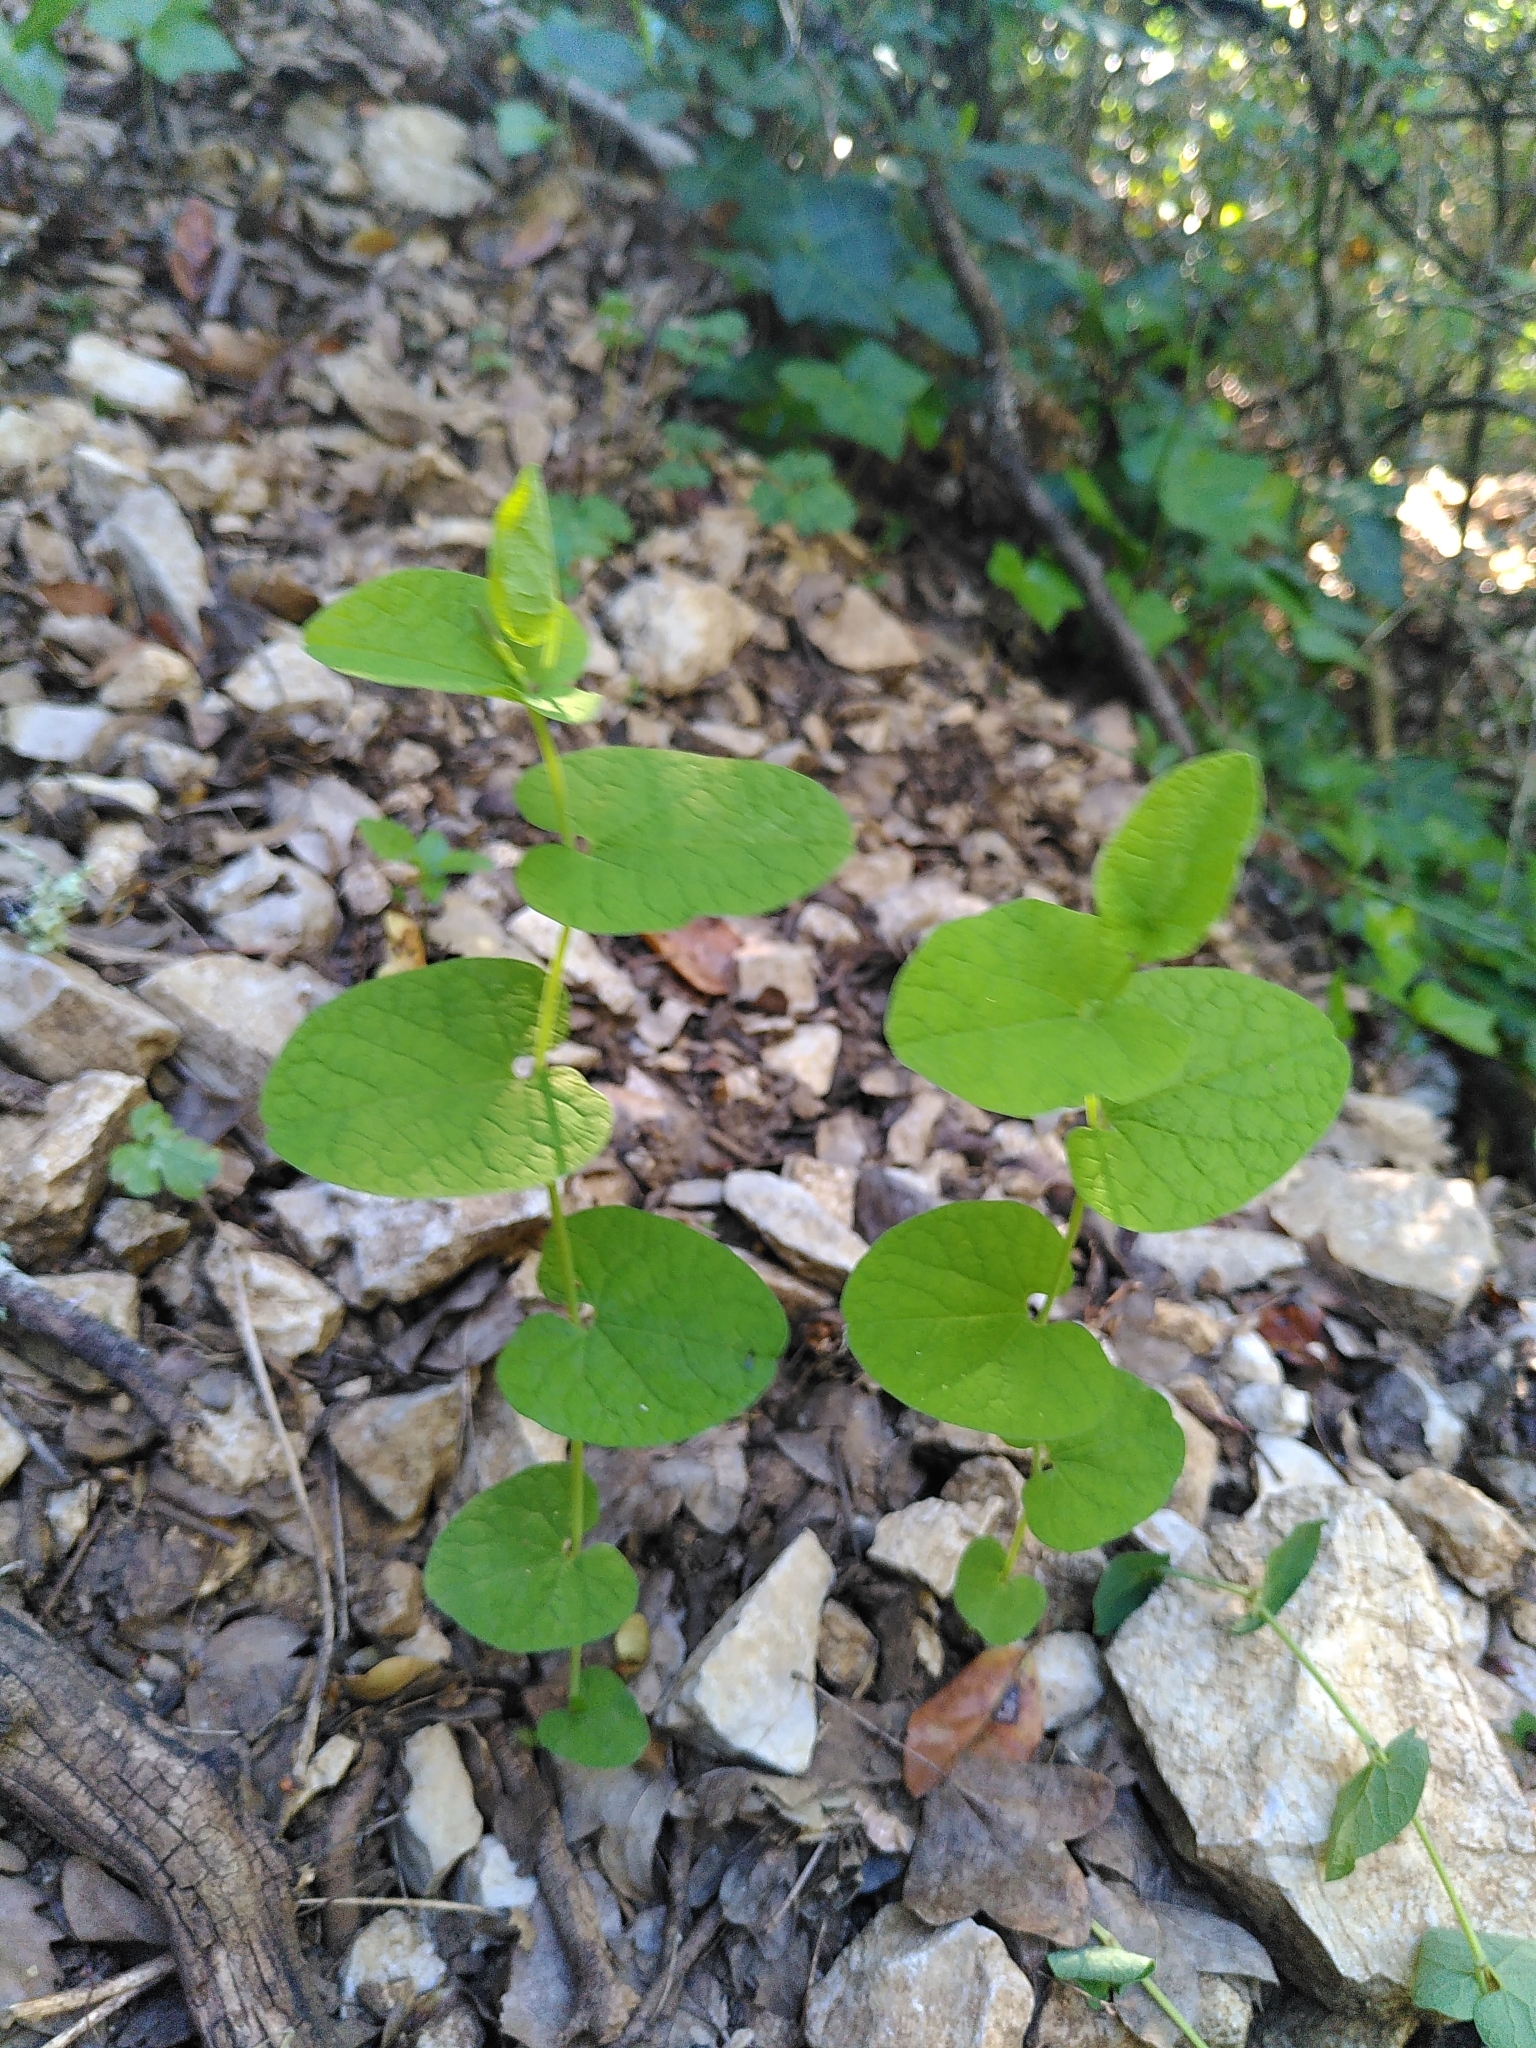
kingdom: Plantae
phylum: Tracheophyta
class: Magnoliopsida
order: Piperales
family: Aristolochiaceae
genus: Aristolochia
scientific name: Aristolochia rotunda
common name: Smearwort
